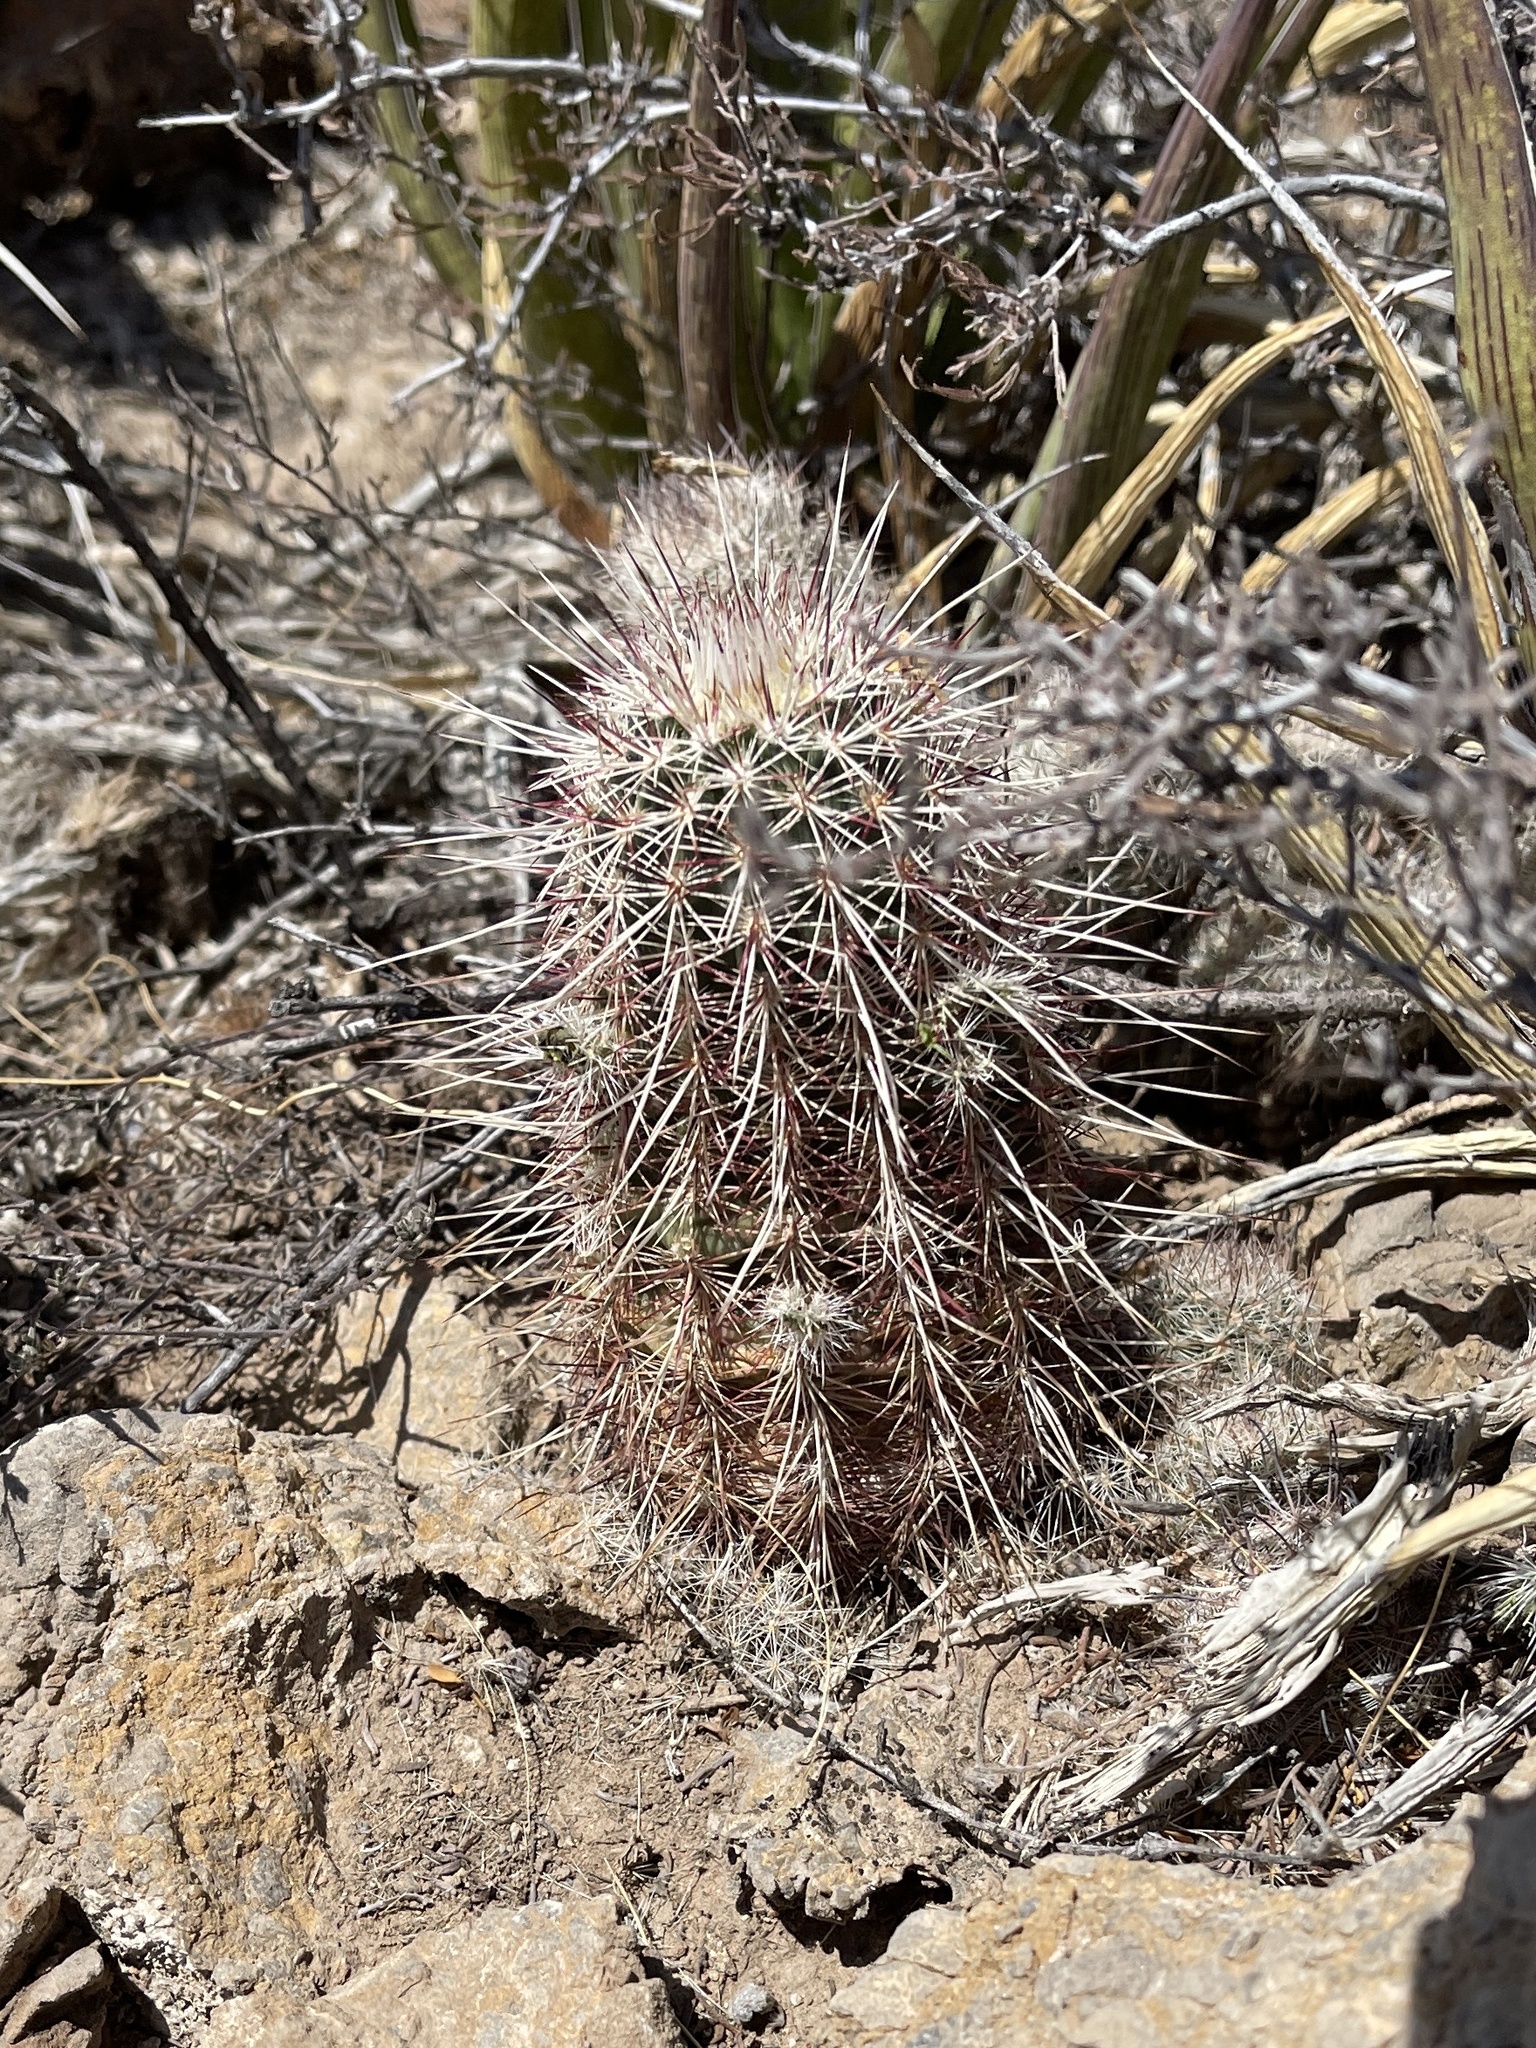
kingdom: Plantae
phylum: Tracheophyta
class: Magnoliopsida
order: Caryophyllales
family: Cactaceae
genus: Echinocereus
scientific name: Echinocereus viridiflorus
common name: Nylon hedgehog cactus
